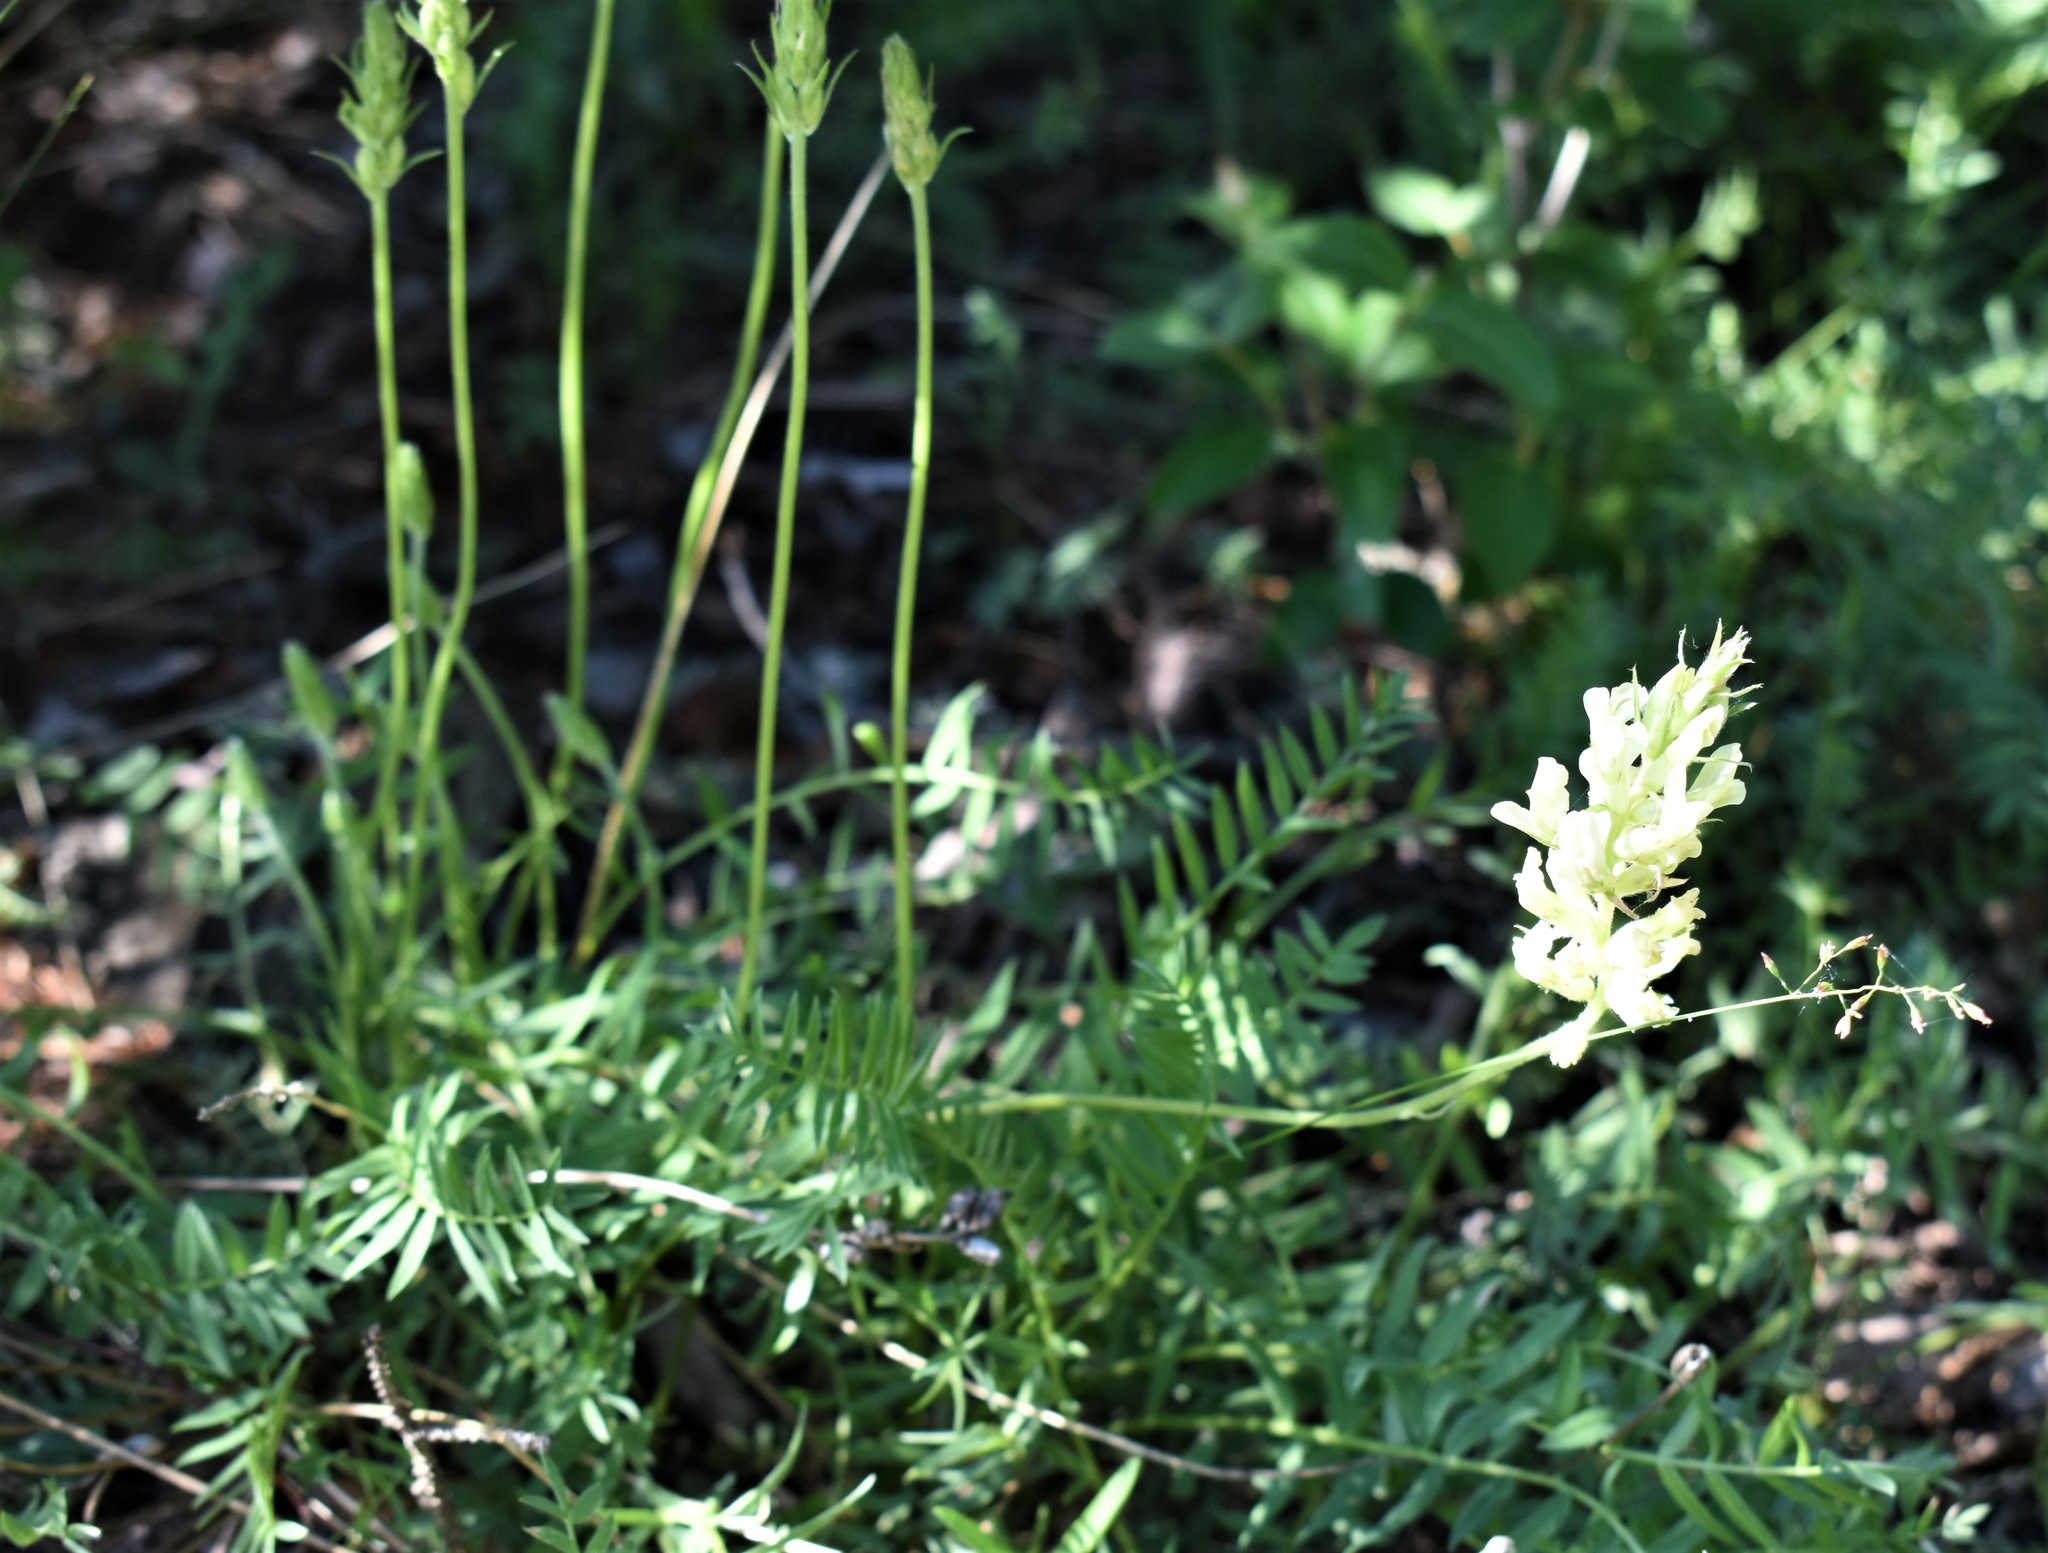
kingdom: Plantae
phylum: Tracheophyta
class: Magnoliopsida
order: Fabales
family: Fabaceae
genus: Oxytropis
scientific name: Oxytropis campestris
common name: Field locoweed
